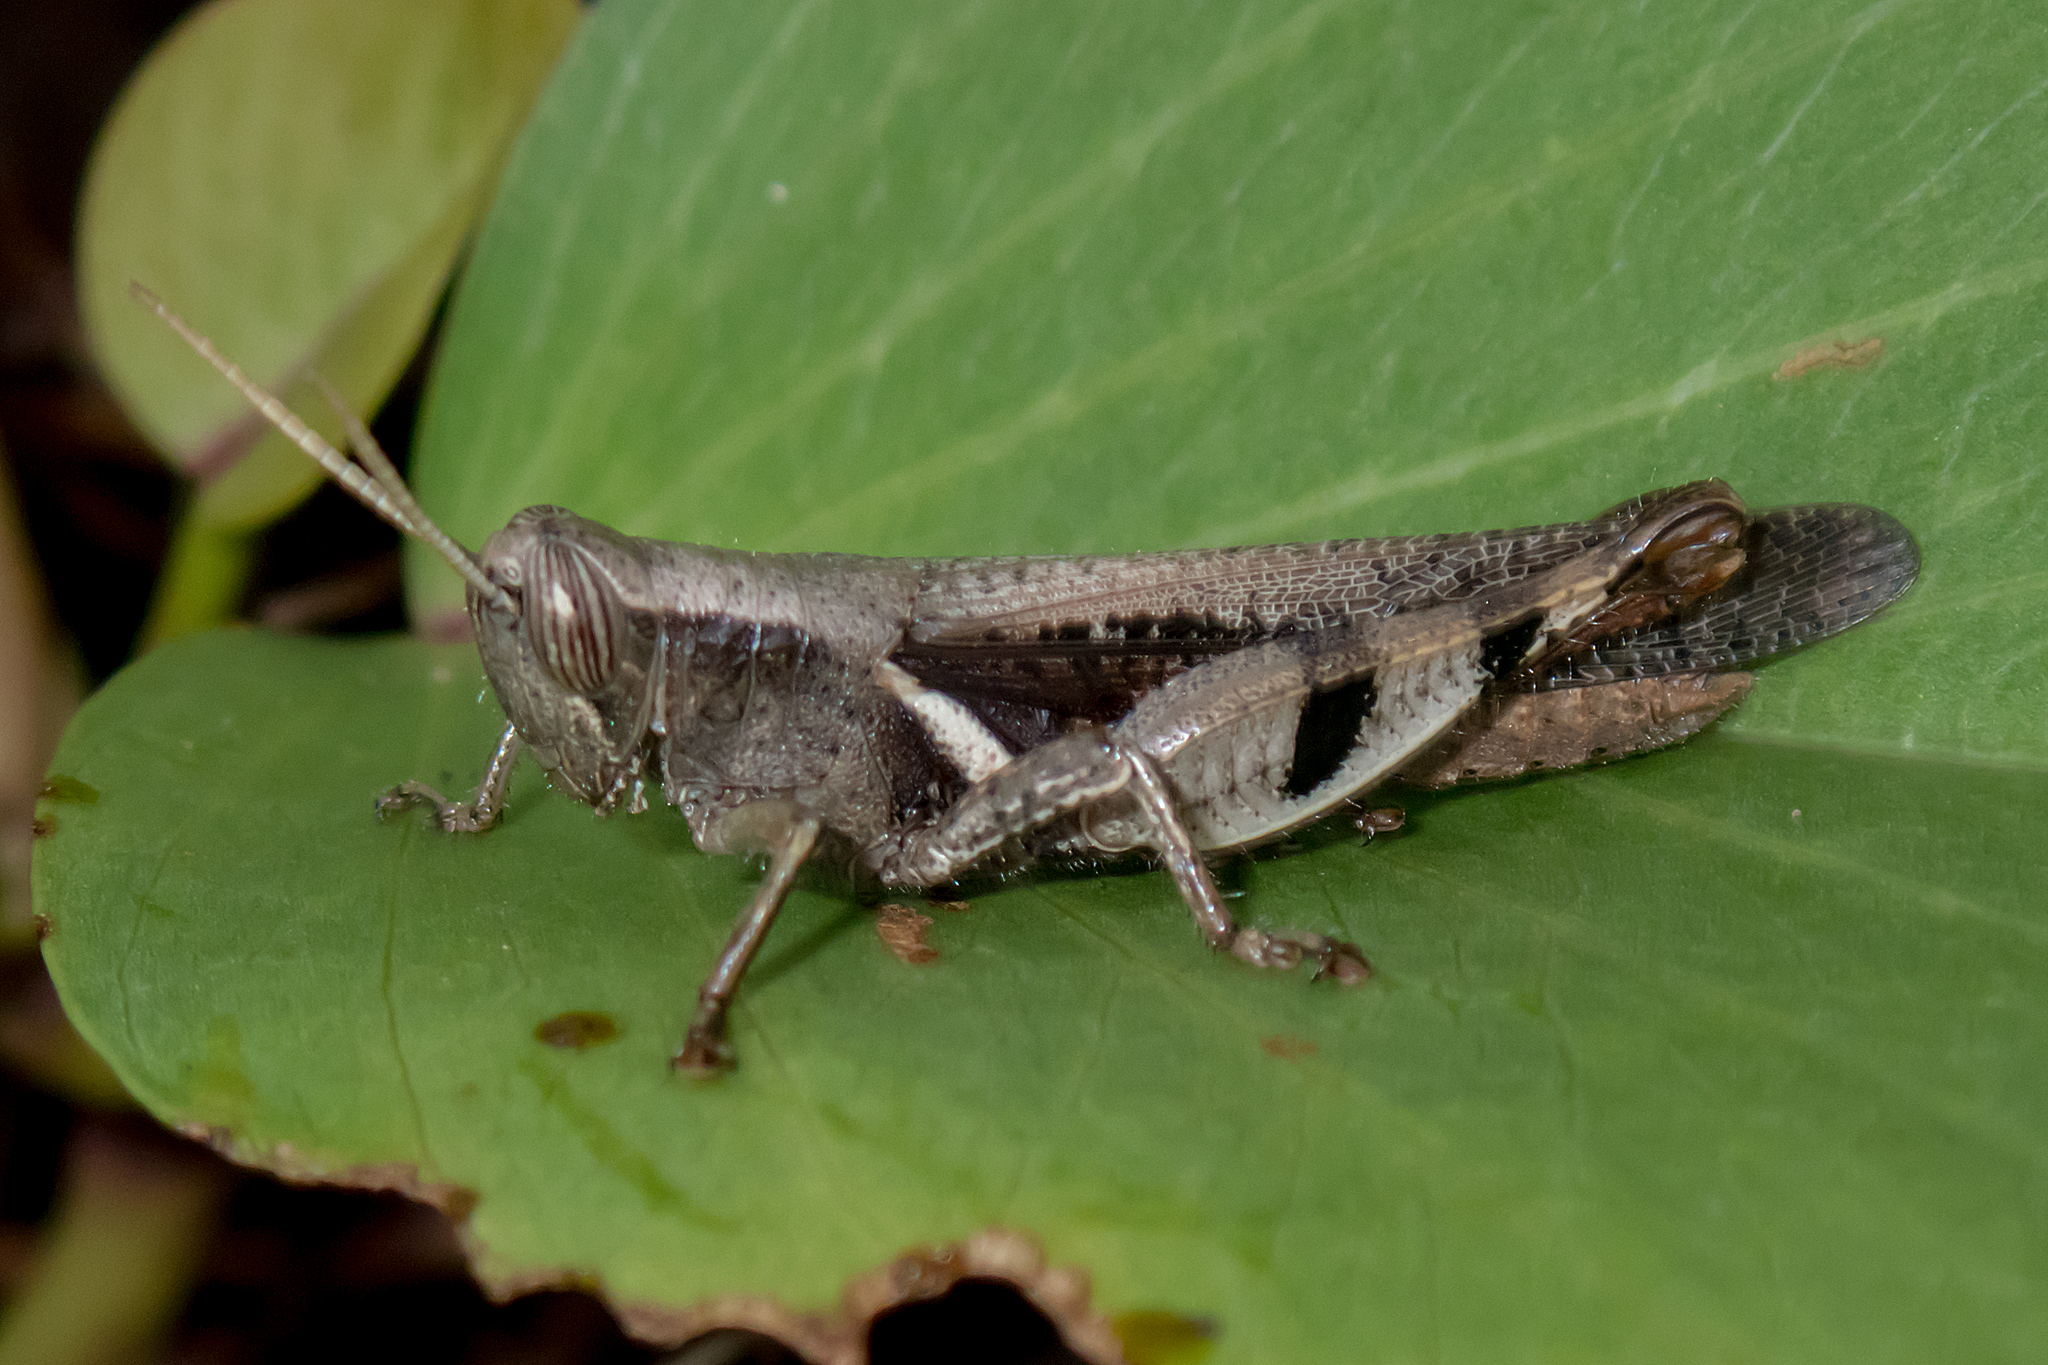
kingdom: Animalia
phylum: Arthropoda
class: Insecta
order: Orthoptera
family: Acrididae
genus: Stenocatantops
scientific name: Stenocatantops angustifrons
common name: Common tropical sharptail
